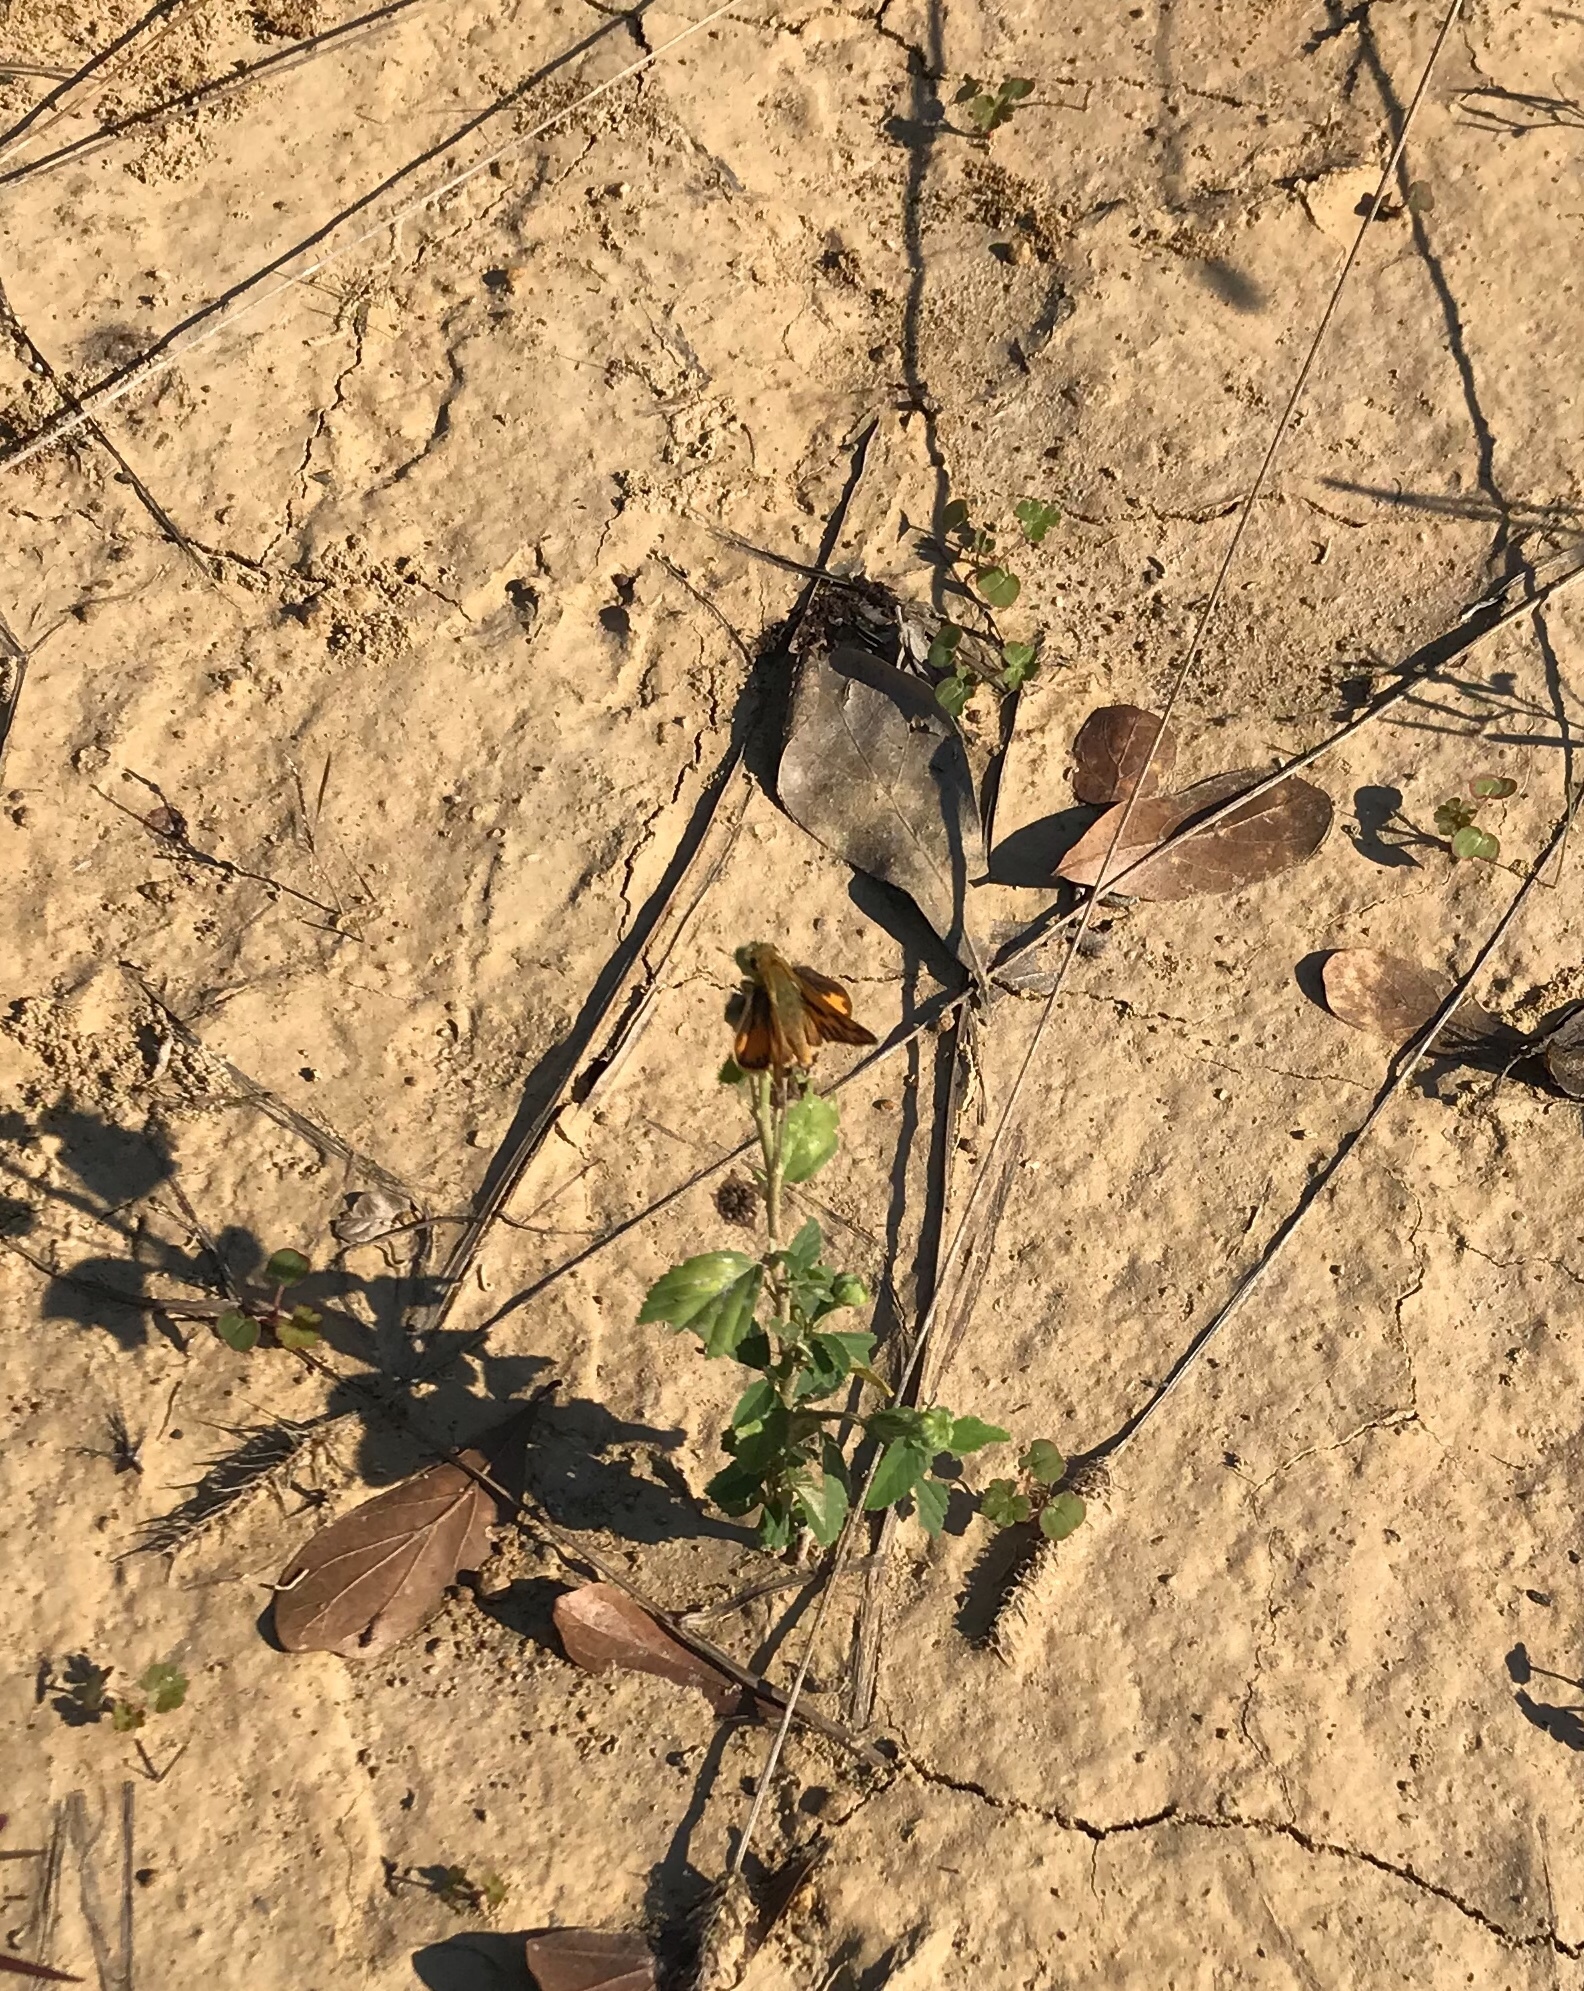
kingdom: Animalia
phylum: Arthropoda
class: Insecta
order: Lepidoptera
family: Hesperiidae
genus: Hylephila
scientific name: Hylephila phyleus
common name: Fiery skipper
